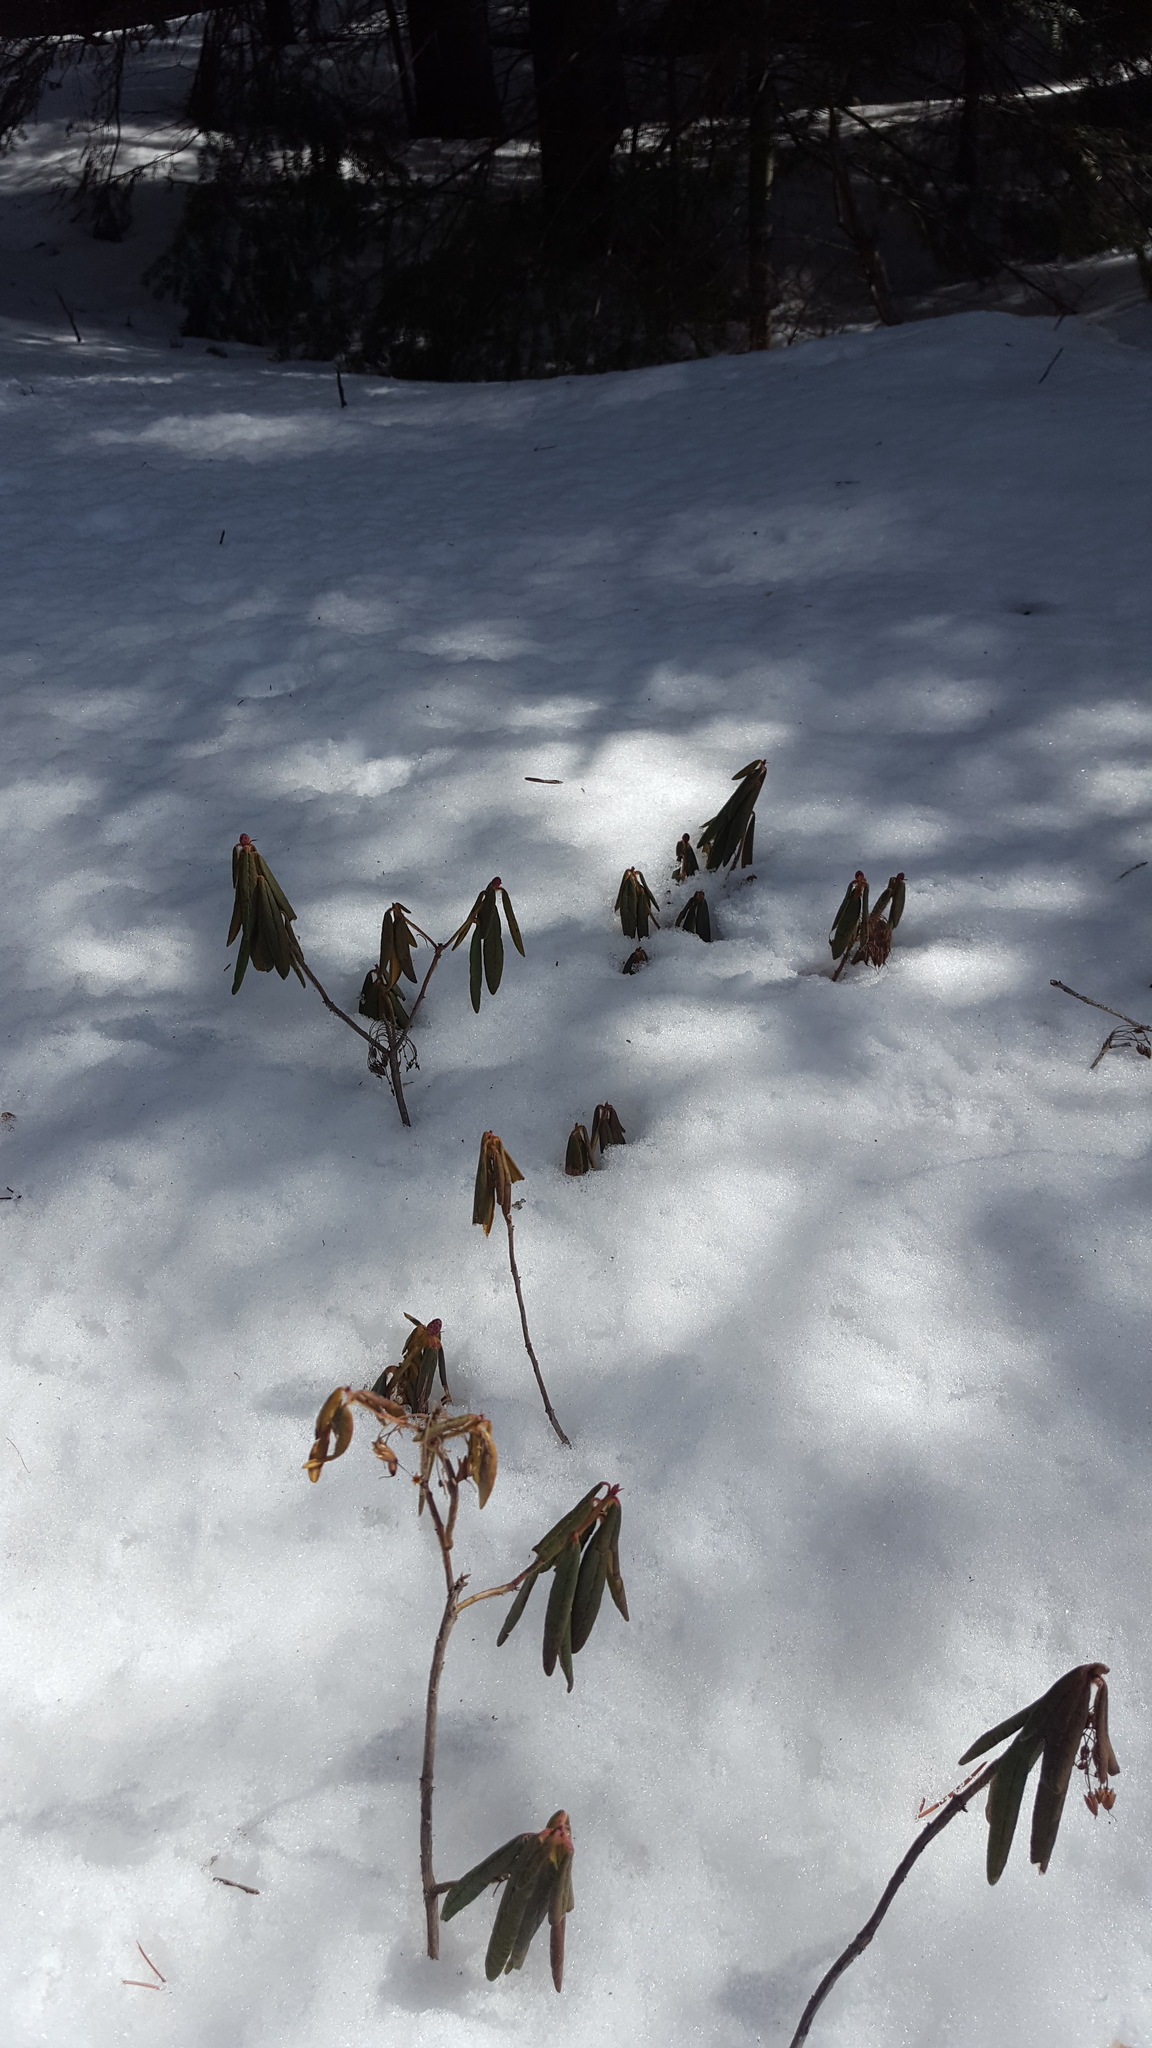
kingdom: Plantae
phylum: Tracheophyta
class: Magnoliopsida
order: Ericales
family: Ericaceae
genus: Rhododendron
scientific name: Rhododendron groenlandicum
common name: Bog labrador tea
